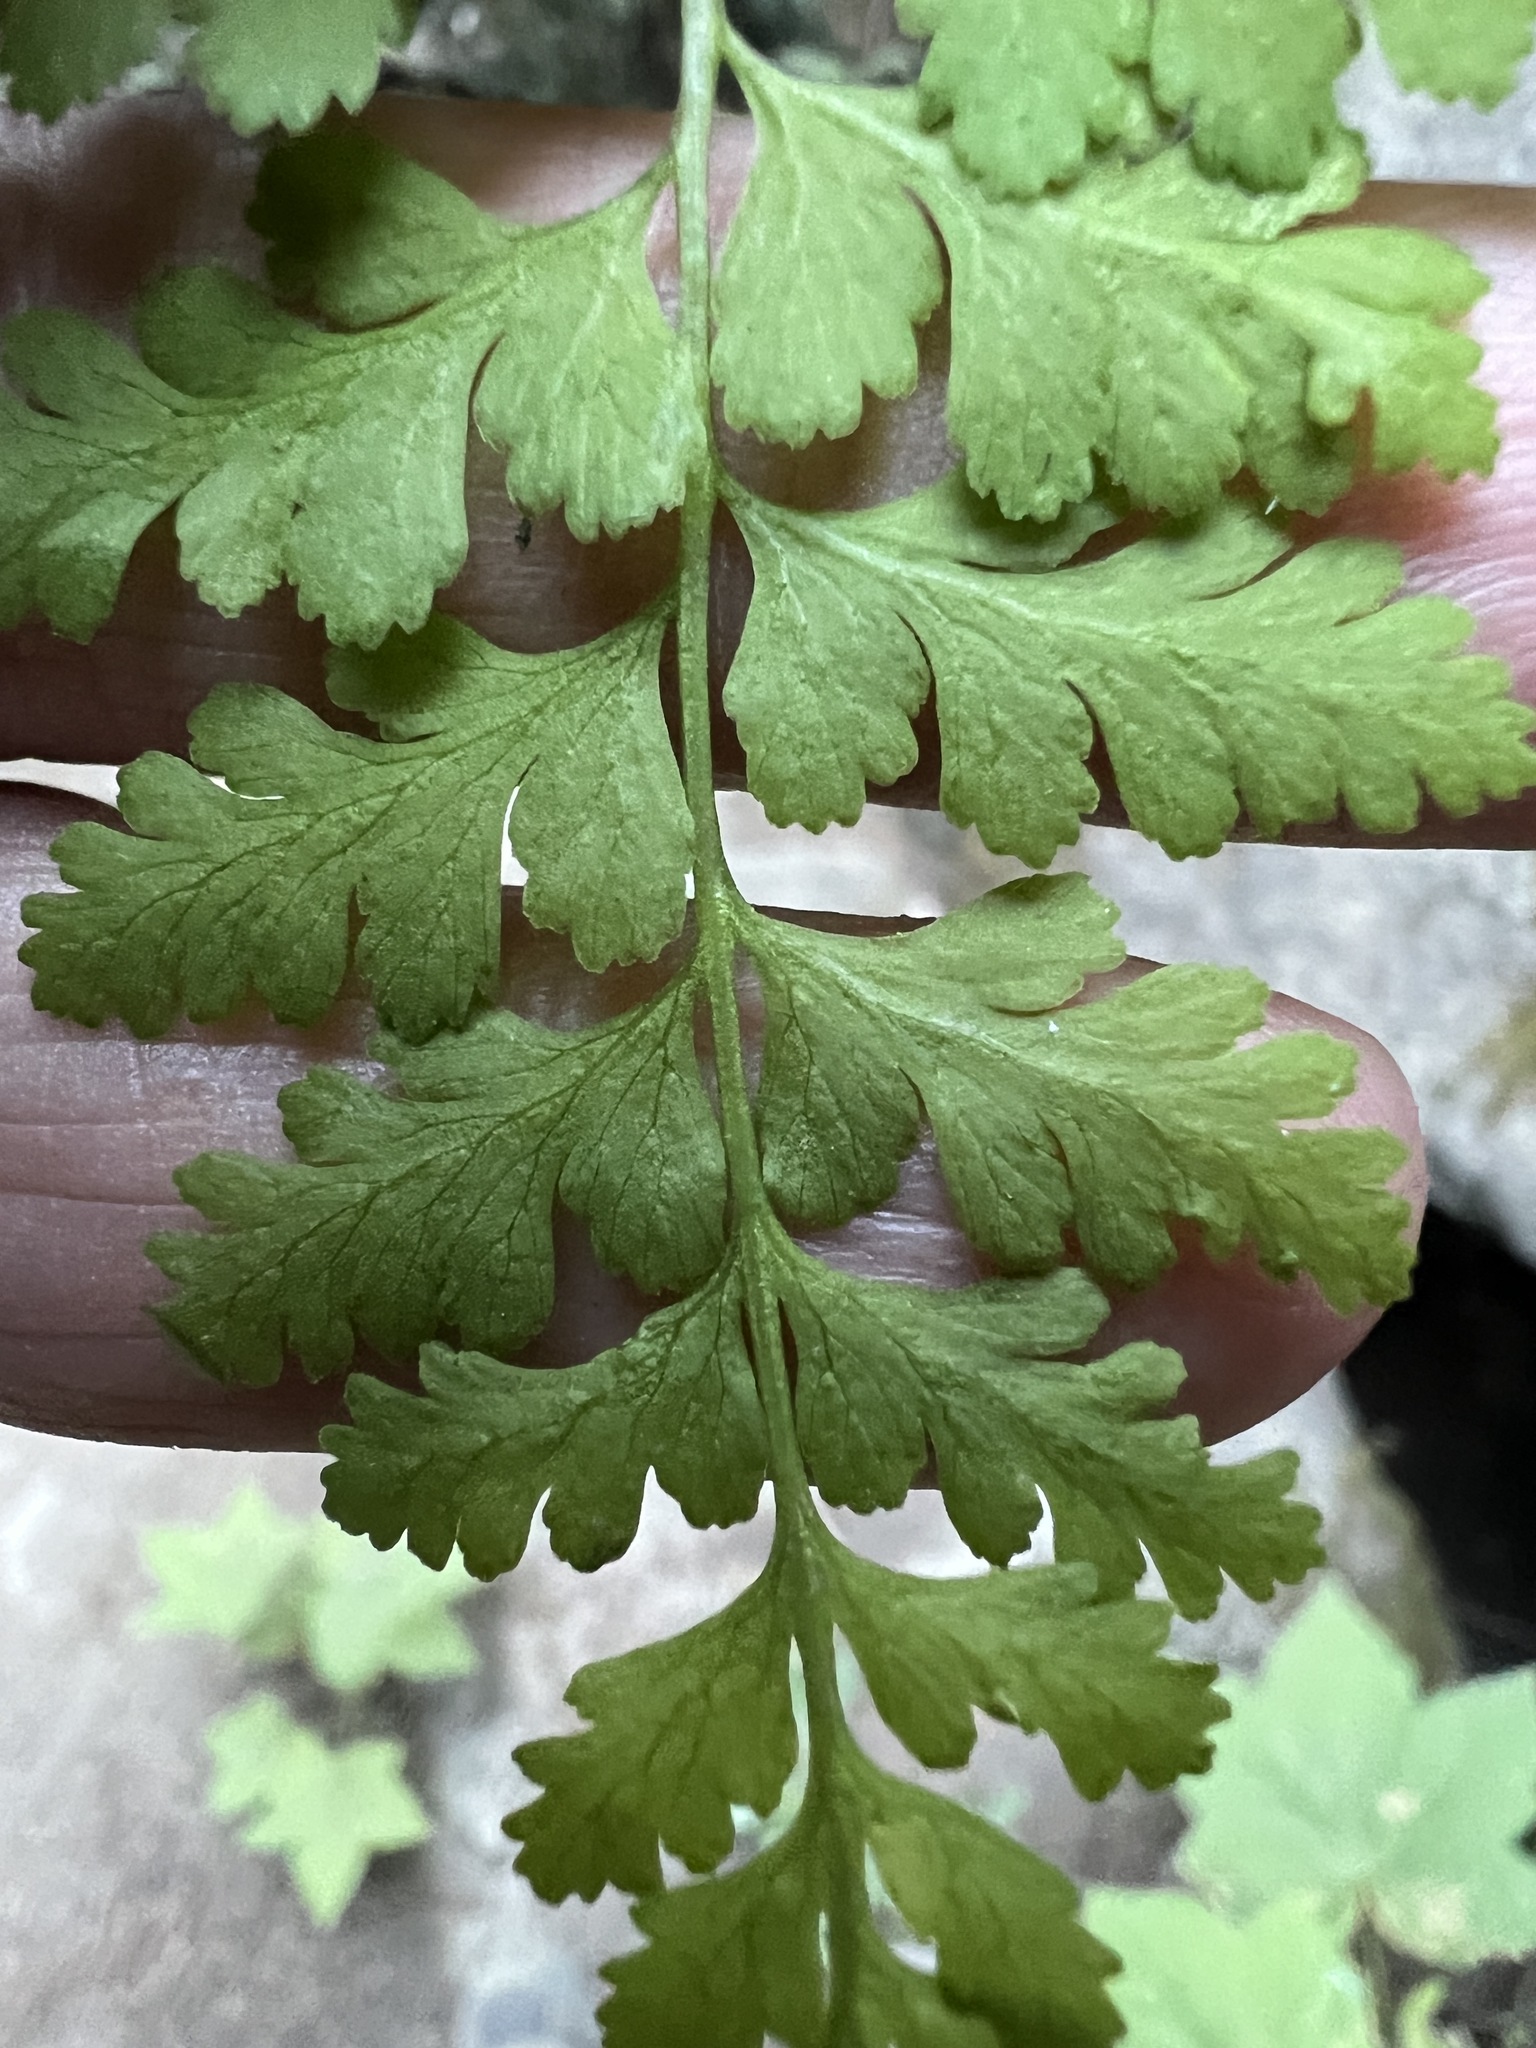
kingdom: Plantae
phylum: Tracheophyta
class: Polypodiopsida
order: Polypodiales
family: Cystopteridaceae
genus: Cystopteris
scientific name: Cystopteris fragilis
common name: Brittle bladder fern
